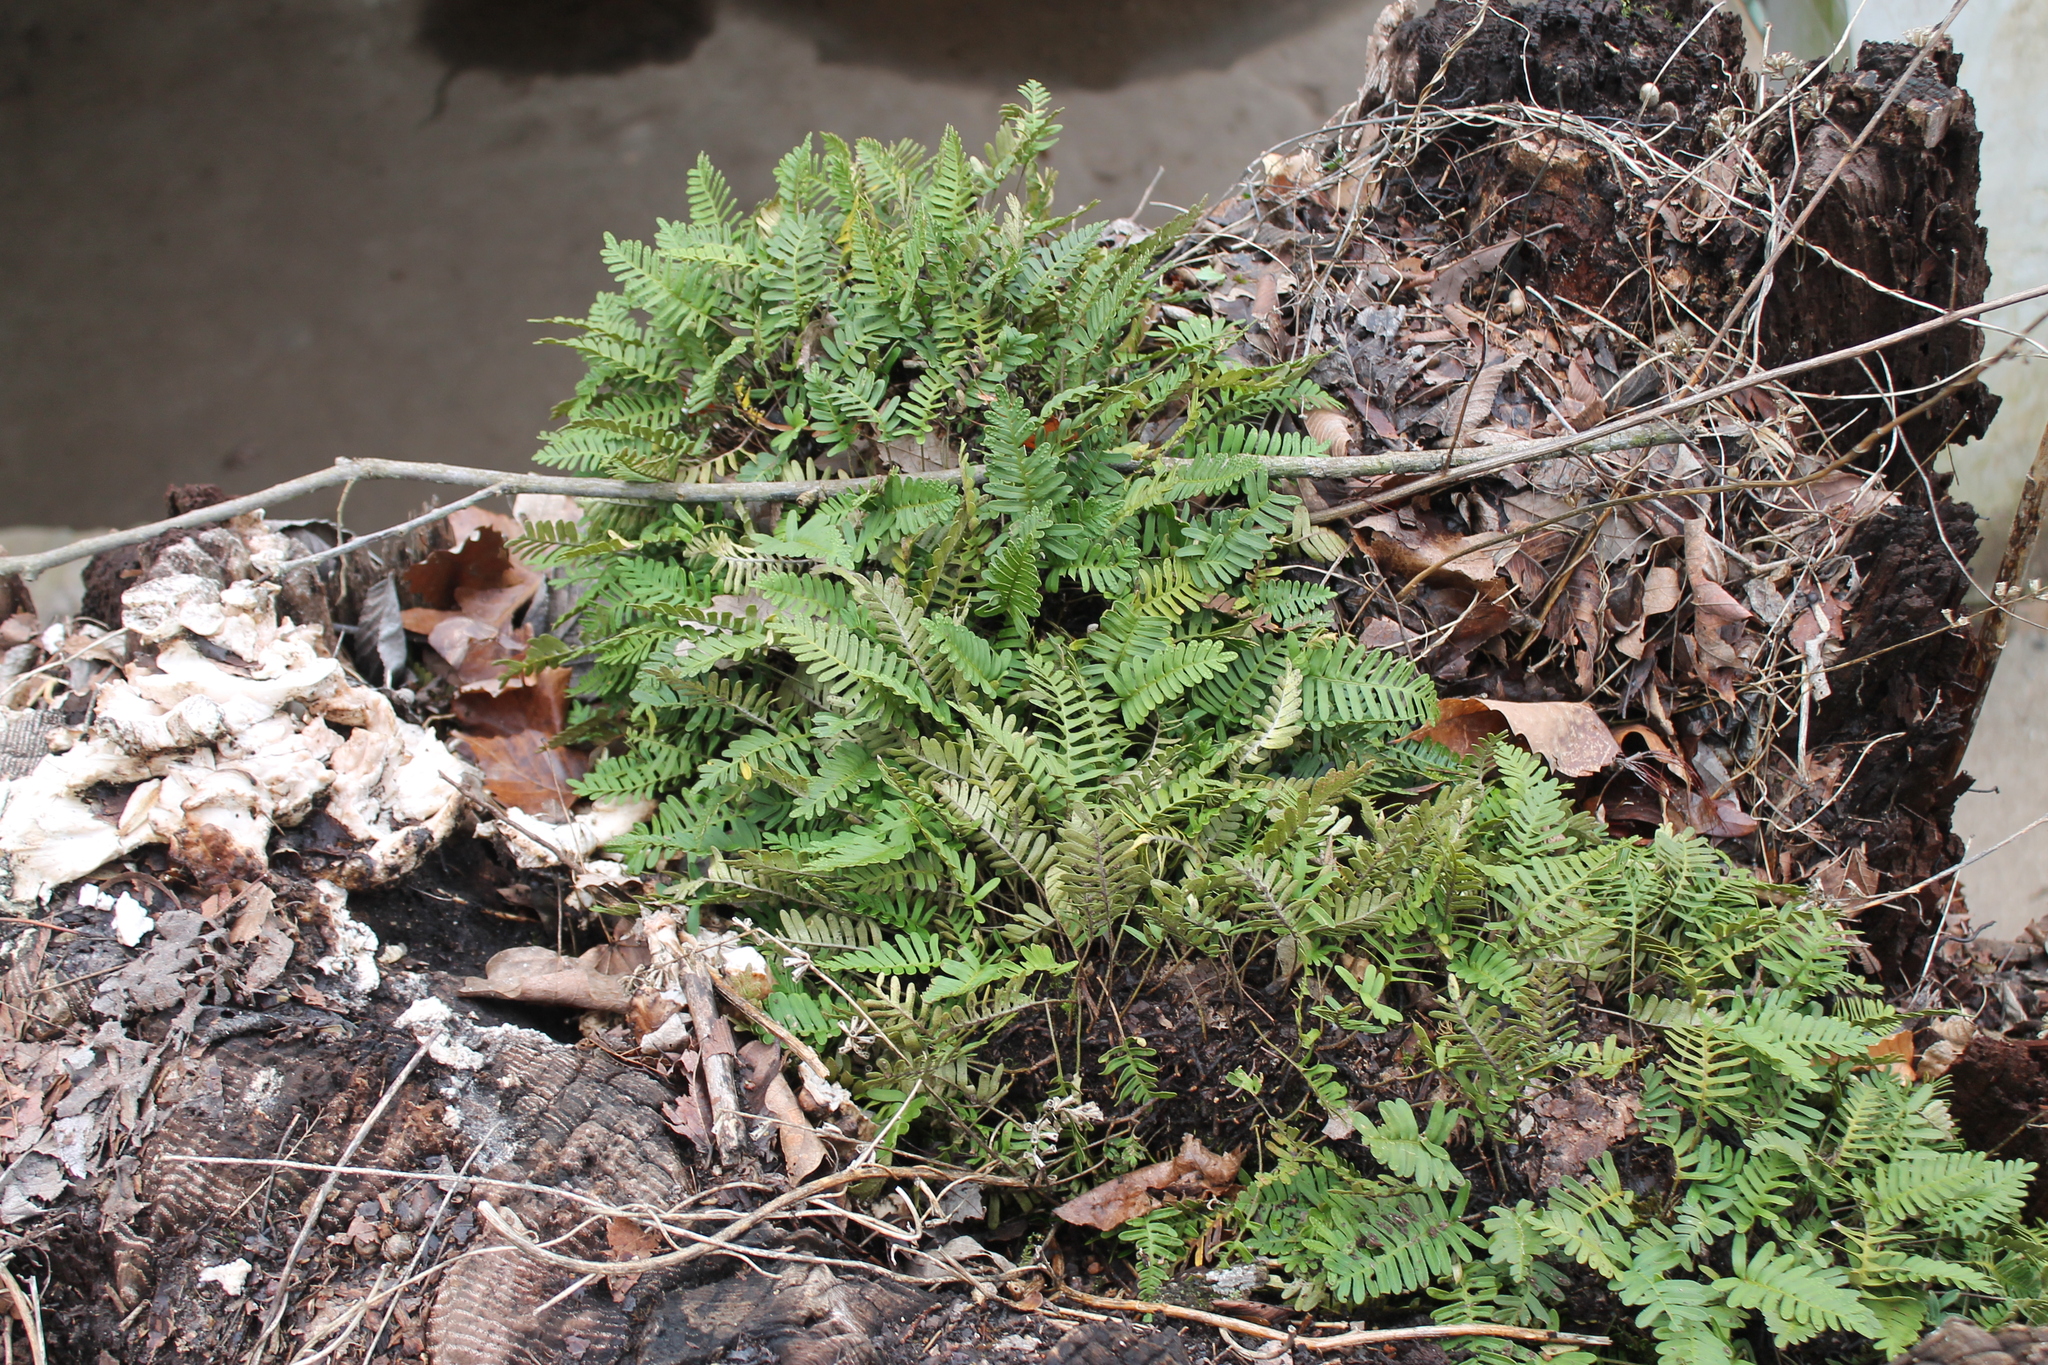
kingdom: Plantae
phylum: Tracheophyta
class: Polypodiopsida
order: Polypodiales
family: Polypodiaceae
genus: Pleopeltis
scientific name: Pleopeltis michauxiana
